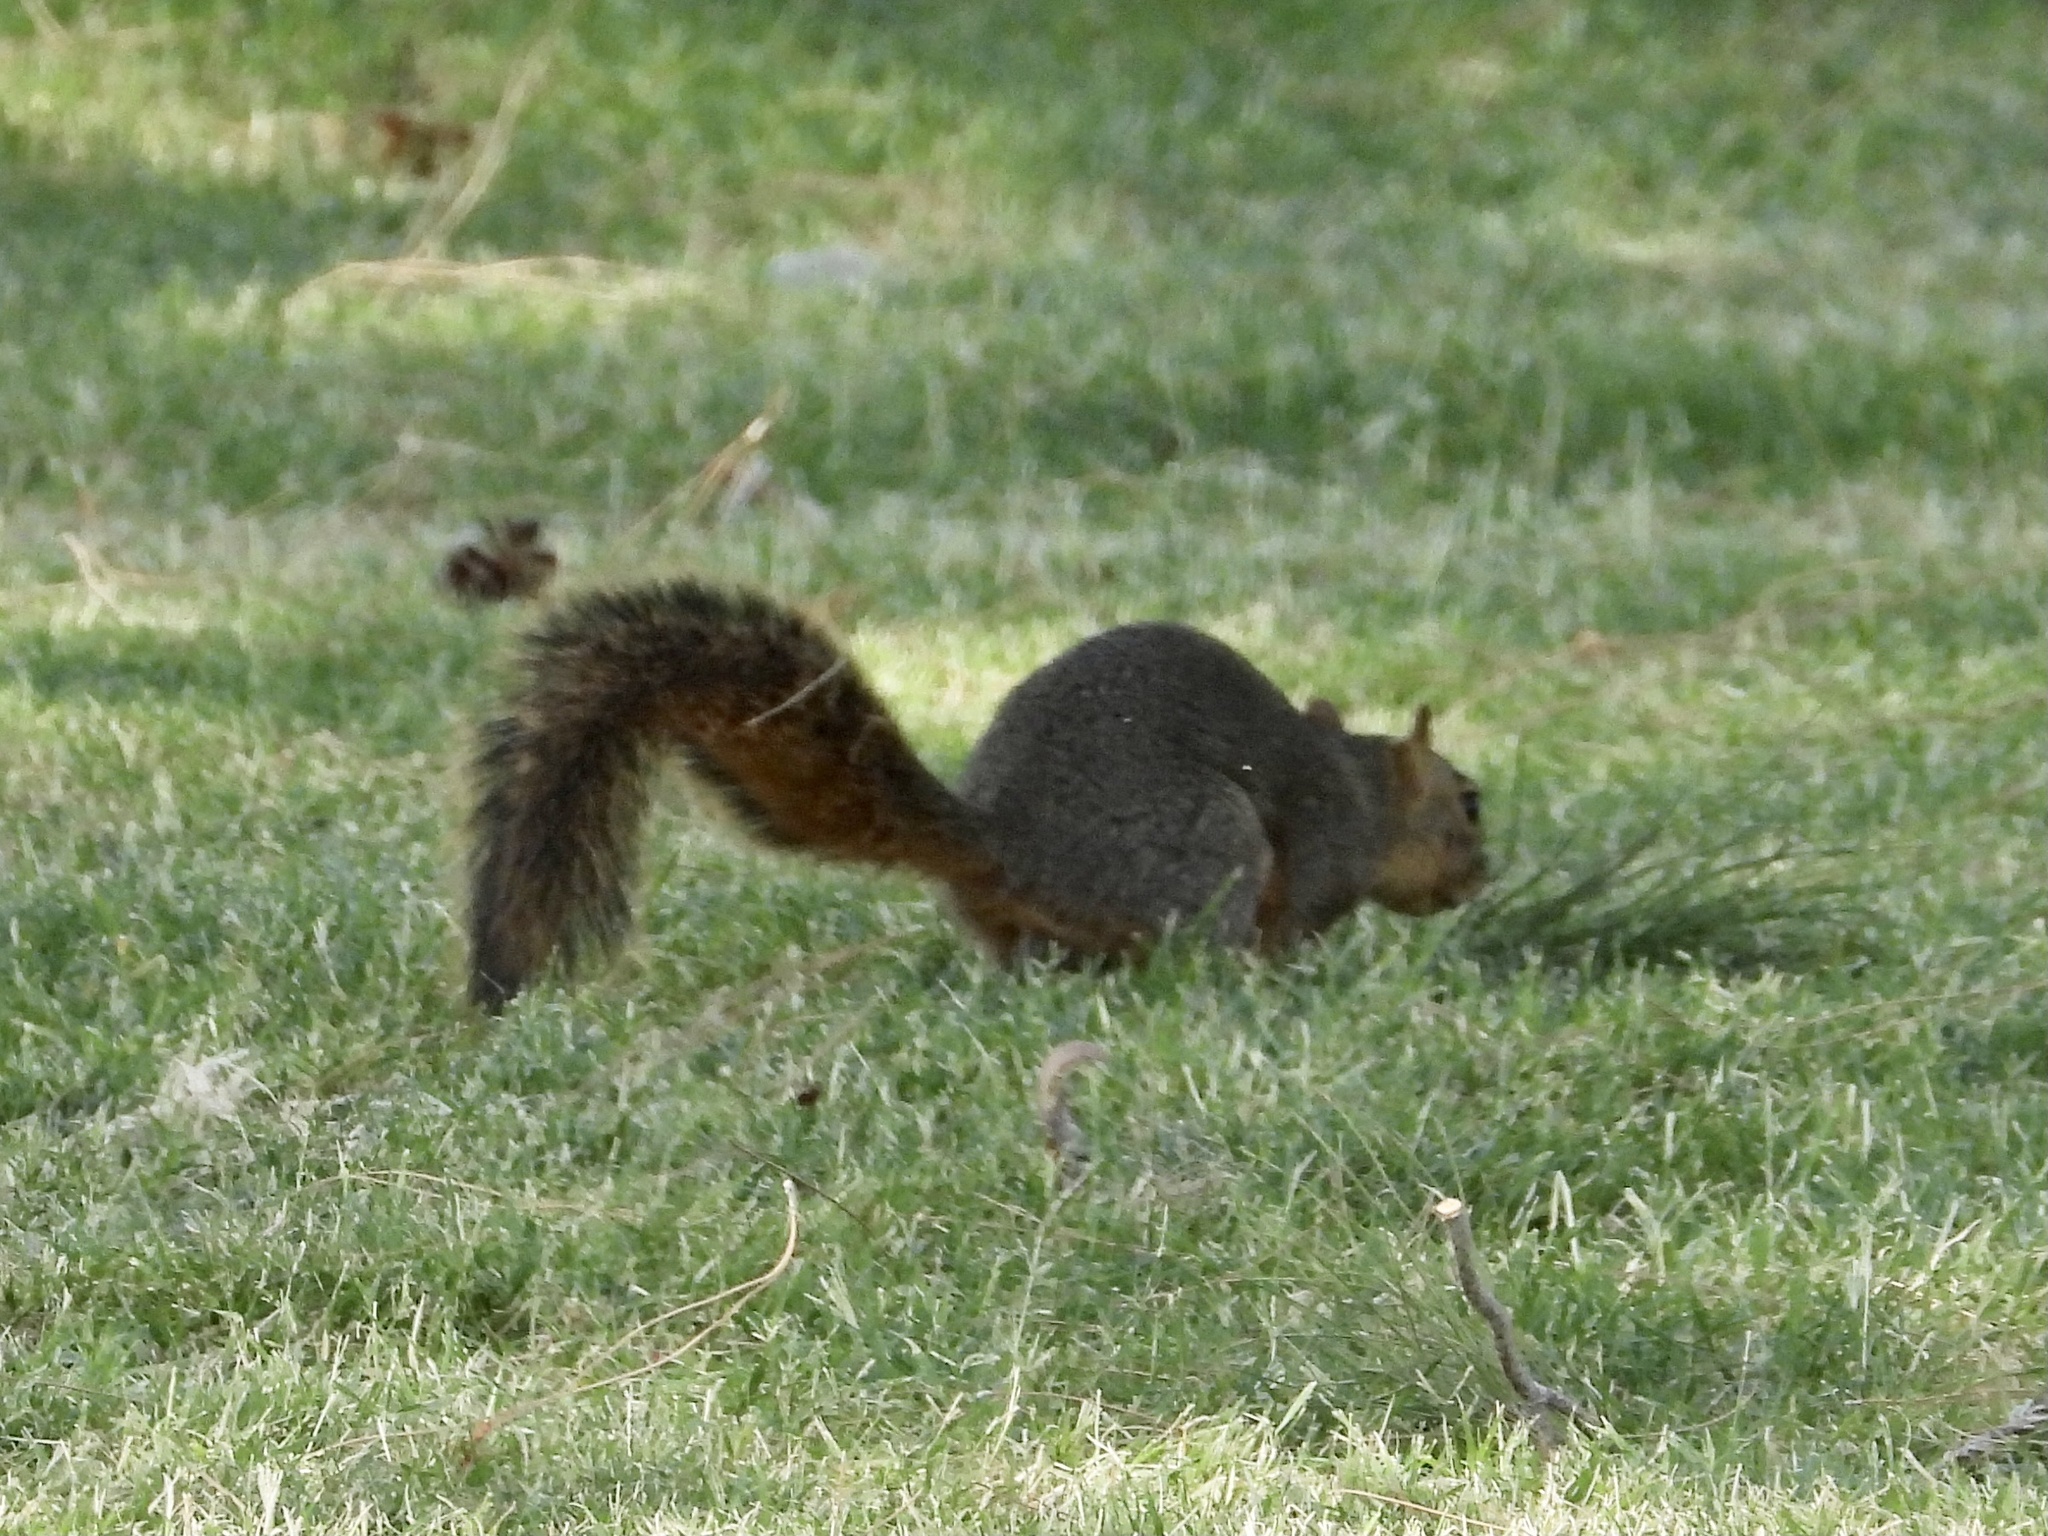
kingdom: Animalia
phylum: Chordata
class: Mammalia
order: Rodentia
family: Sciuridae
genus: Sciurus
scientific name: Sciurus niger
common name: Fox squirrel
